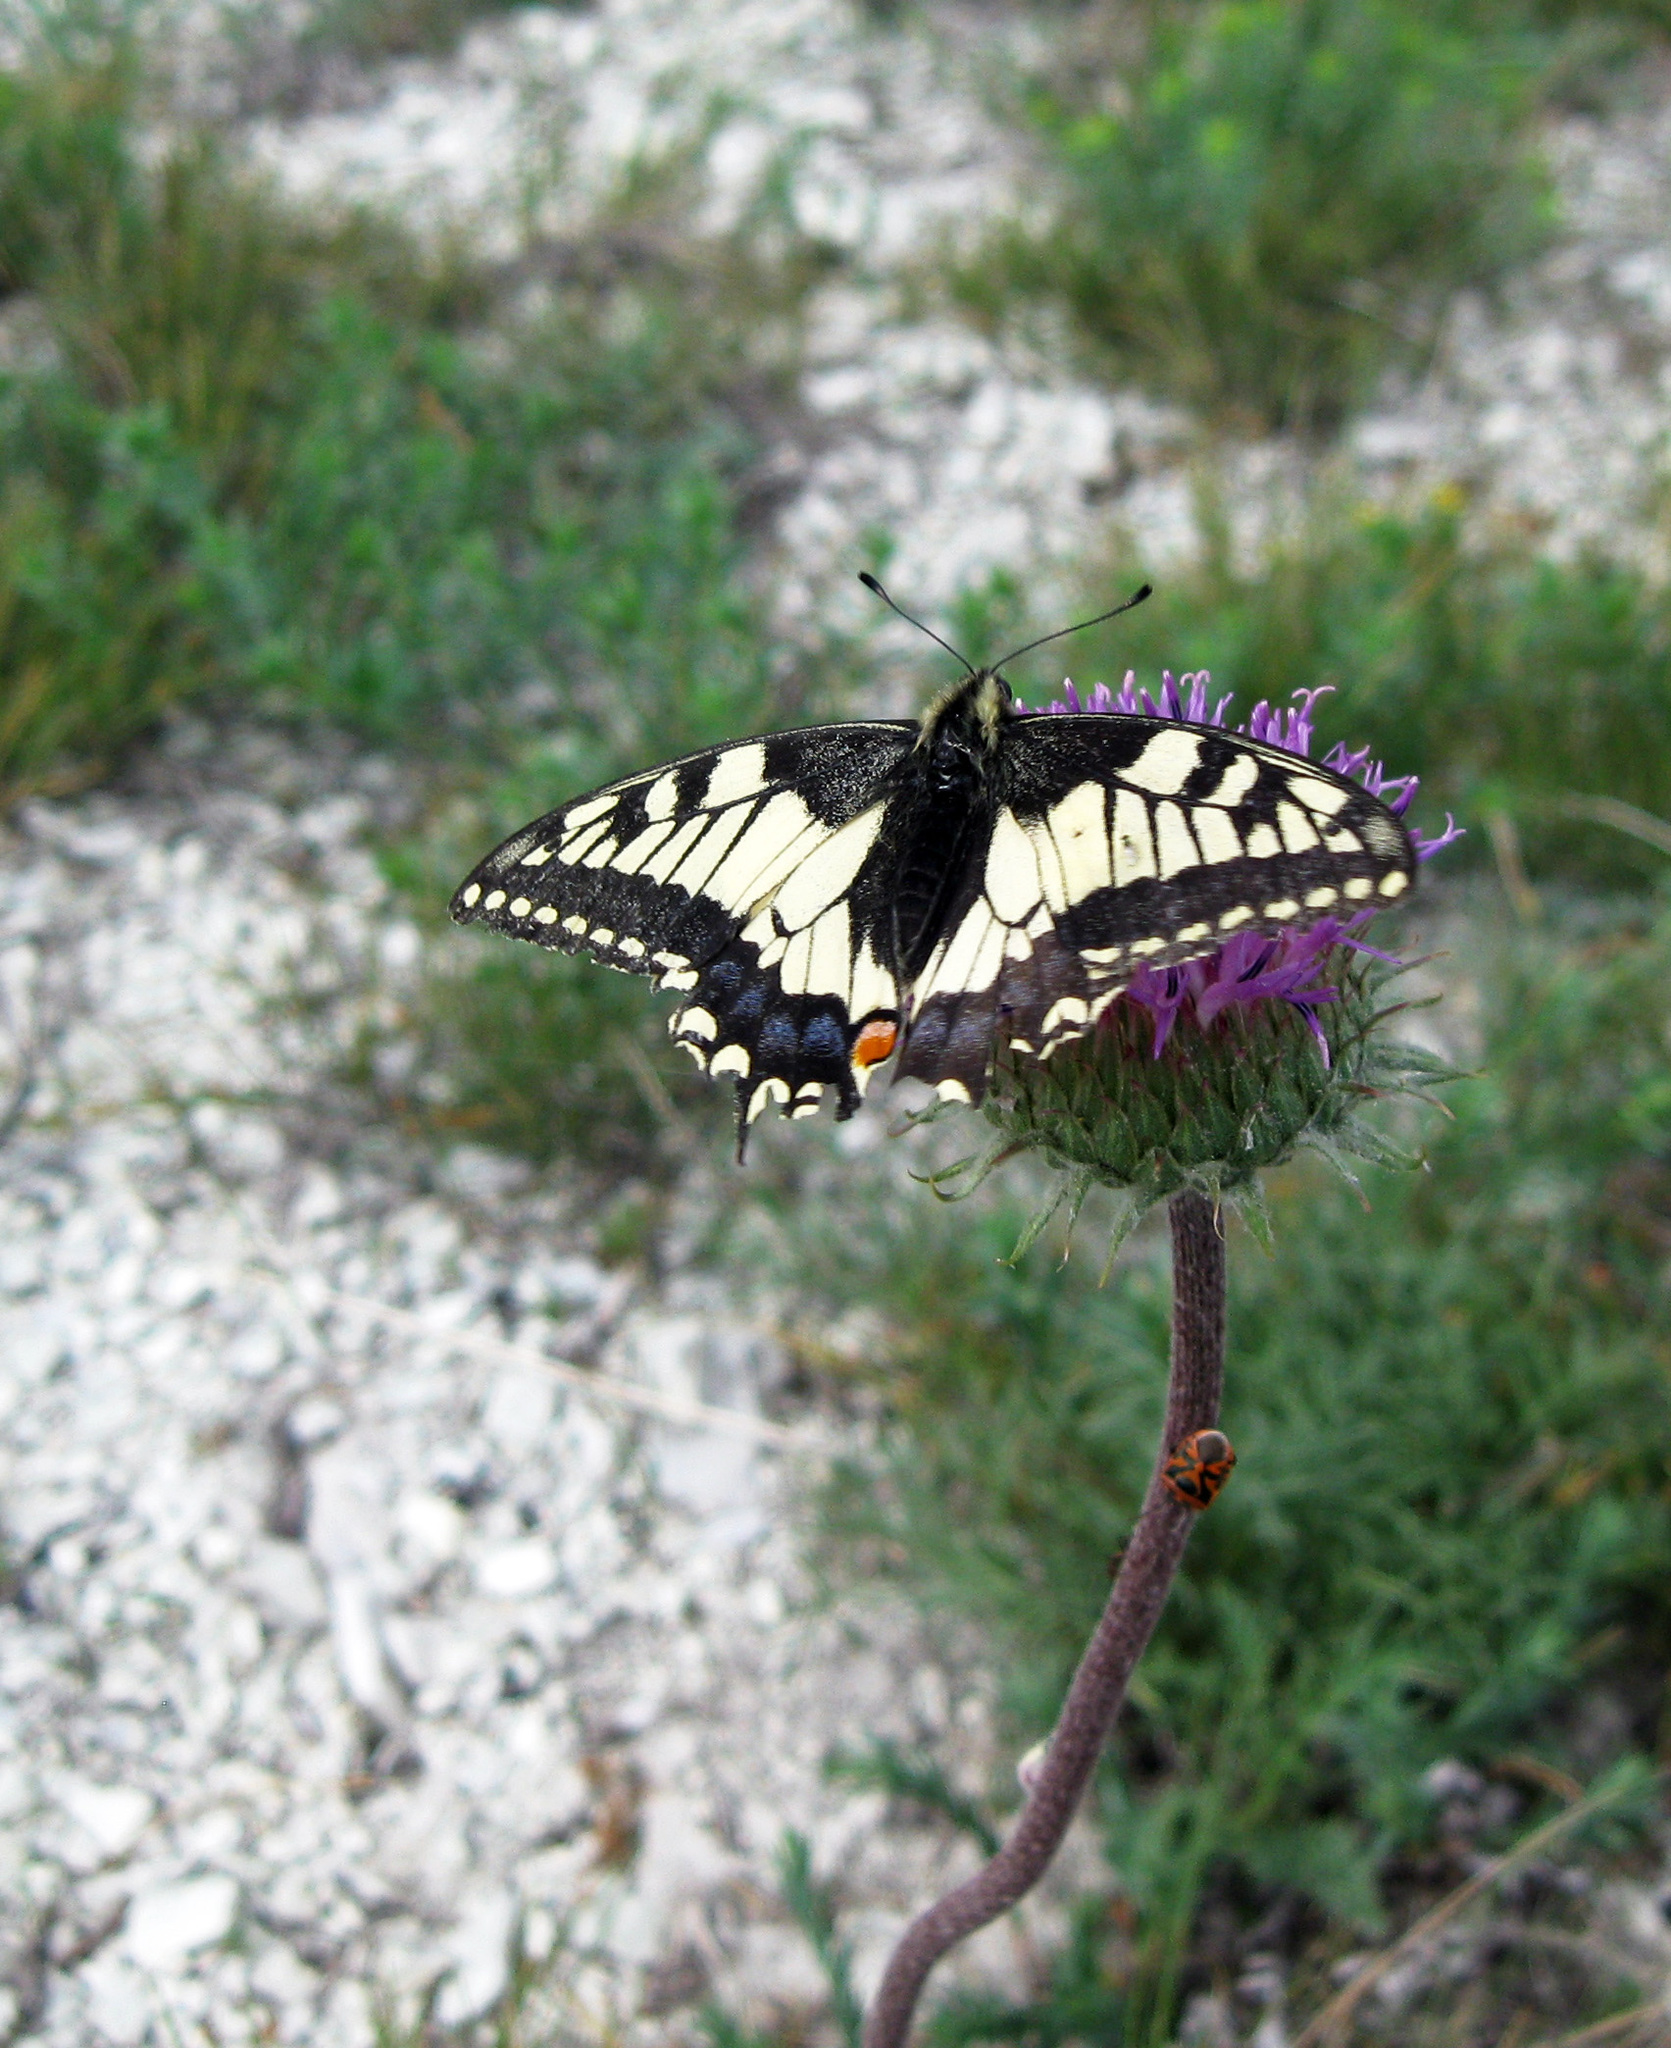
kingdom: Animalia
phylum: Arthropoda
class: Insecta
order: Lepidoptera
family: Papilionidae
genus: Papilio
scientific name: Papilio machaon
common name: Swallowtail
